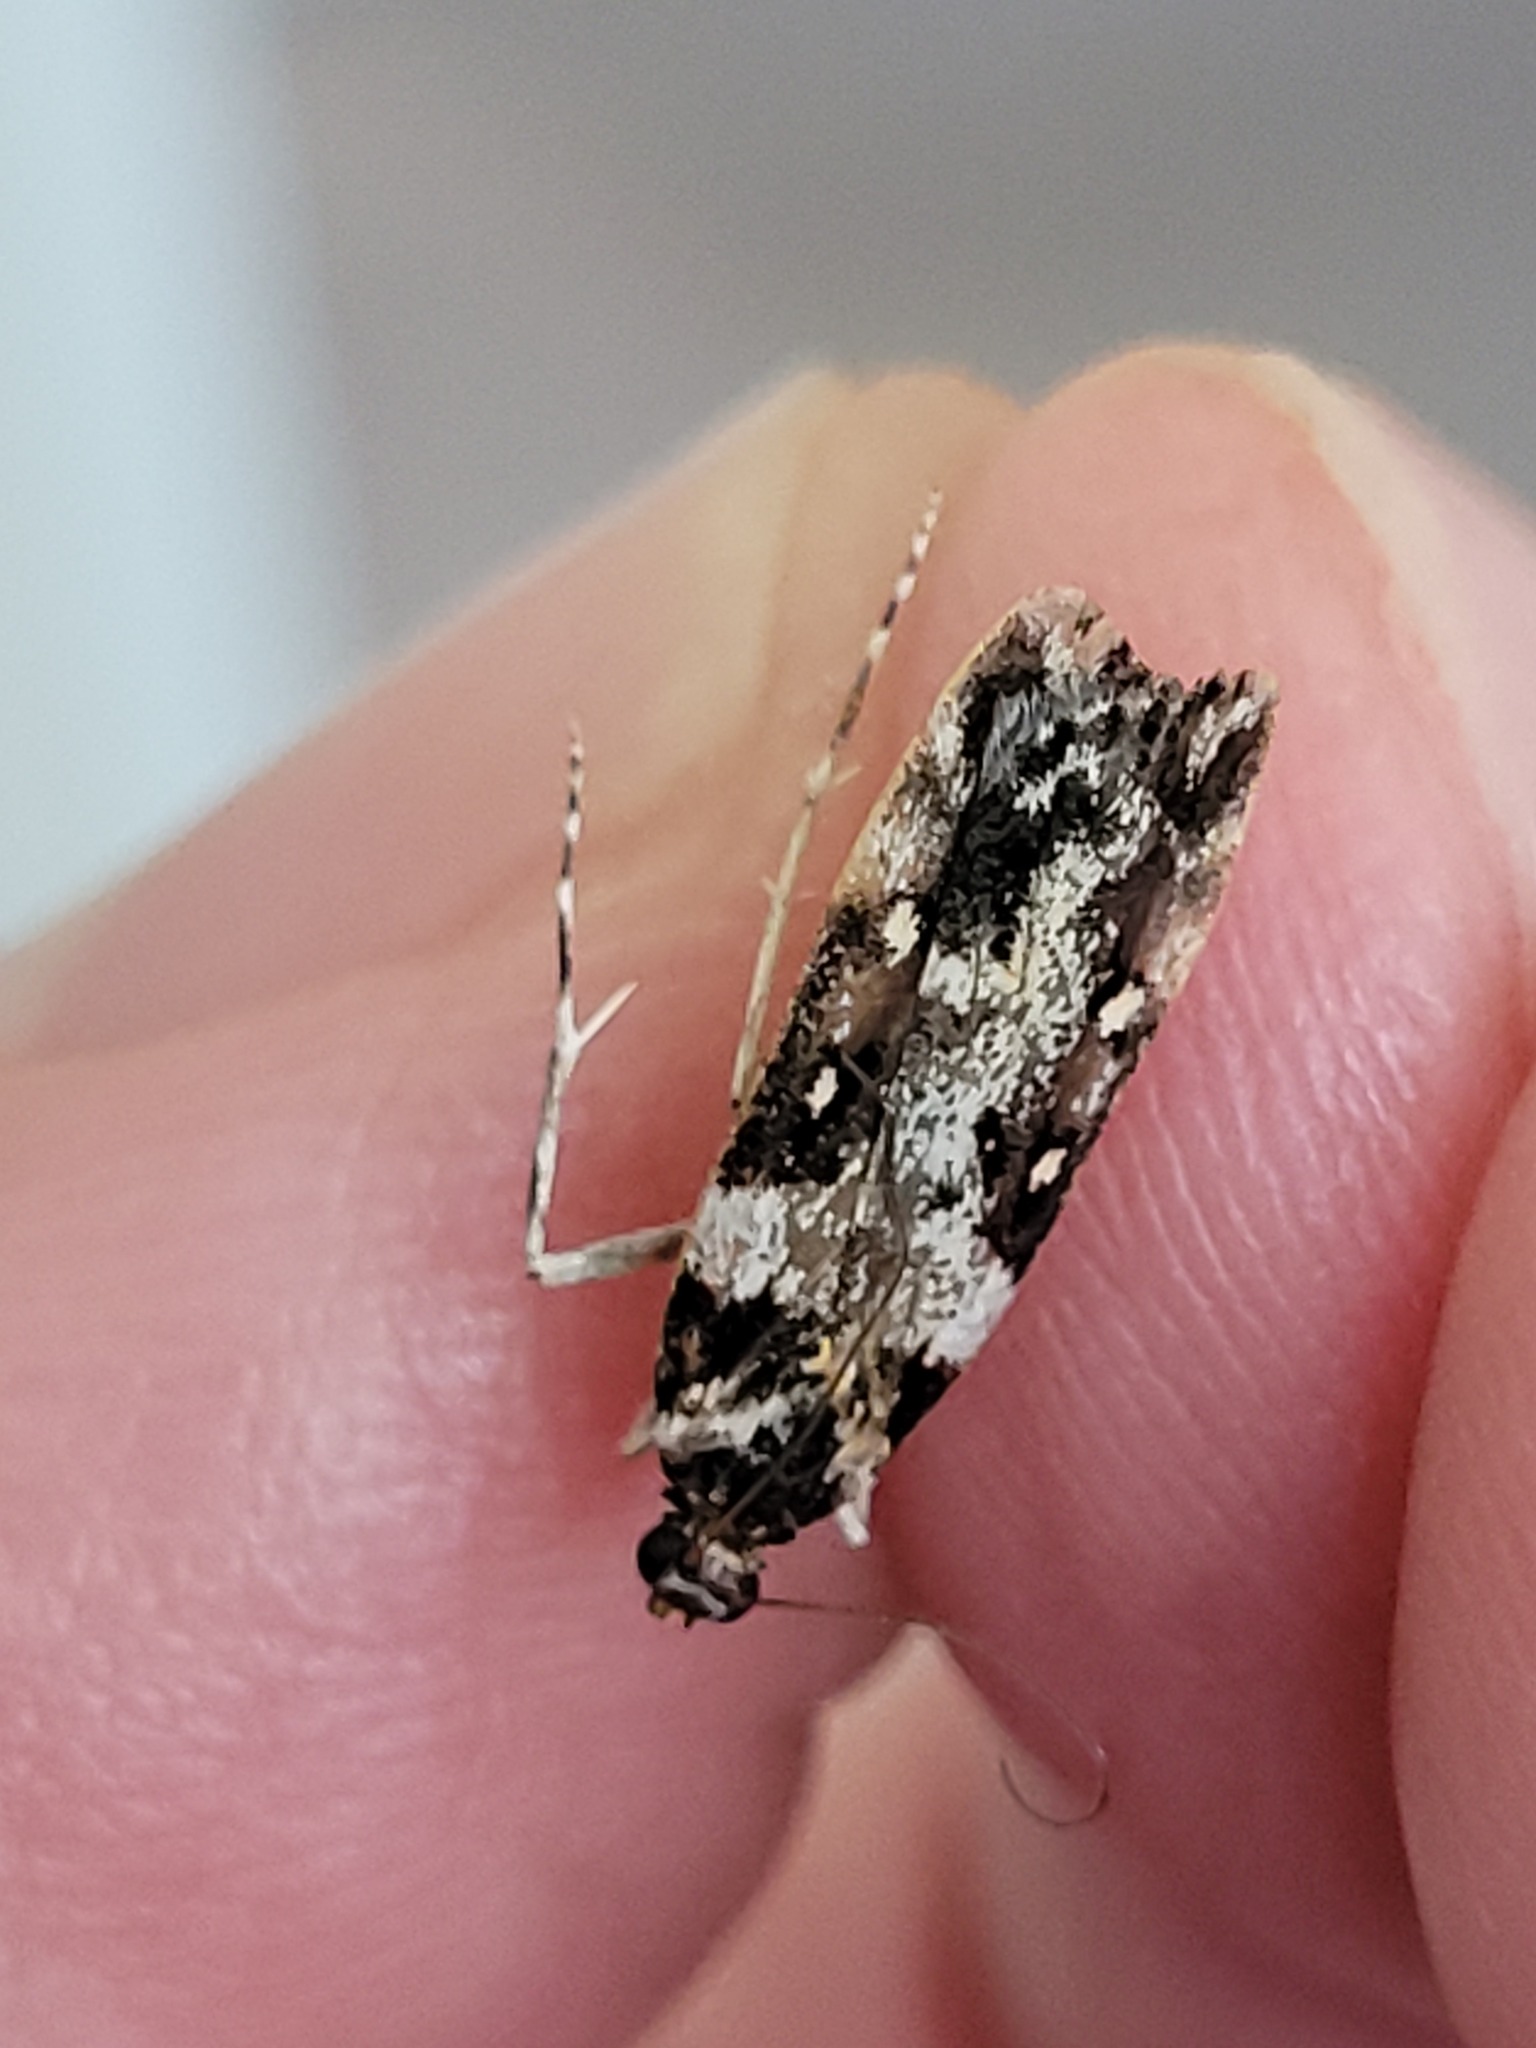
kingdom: Animalia
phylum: Arthropoda
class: Insecta
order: Lepidoptera
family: Crambidae
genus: Eudonia
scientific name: Eudonia diphtheralis
